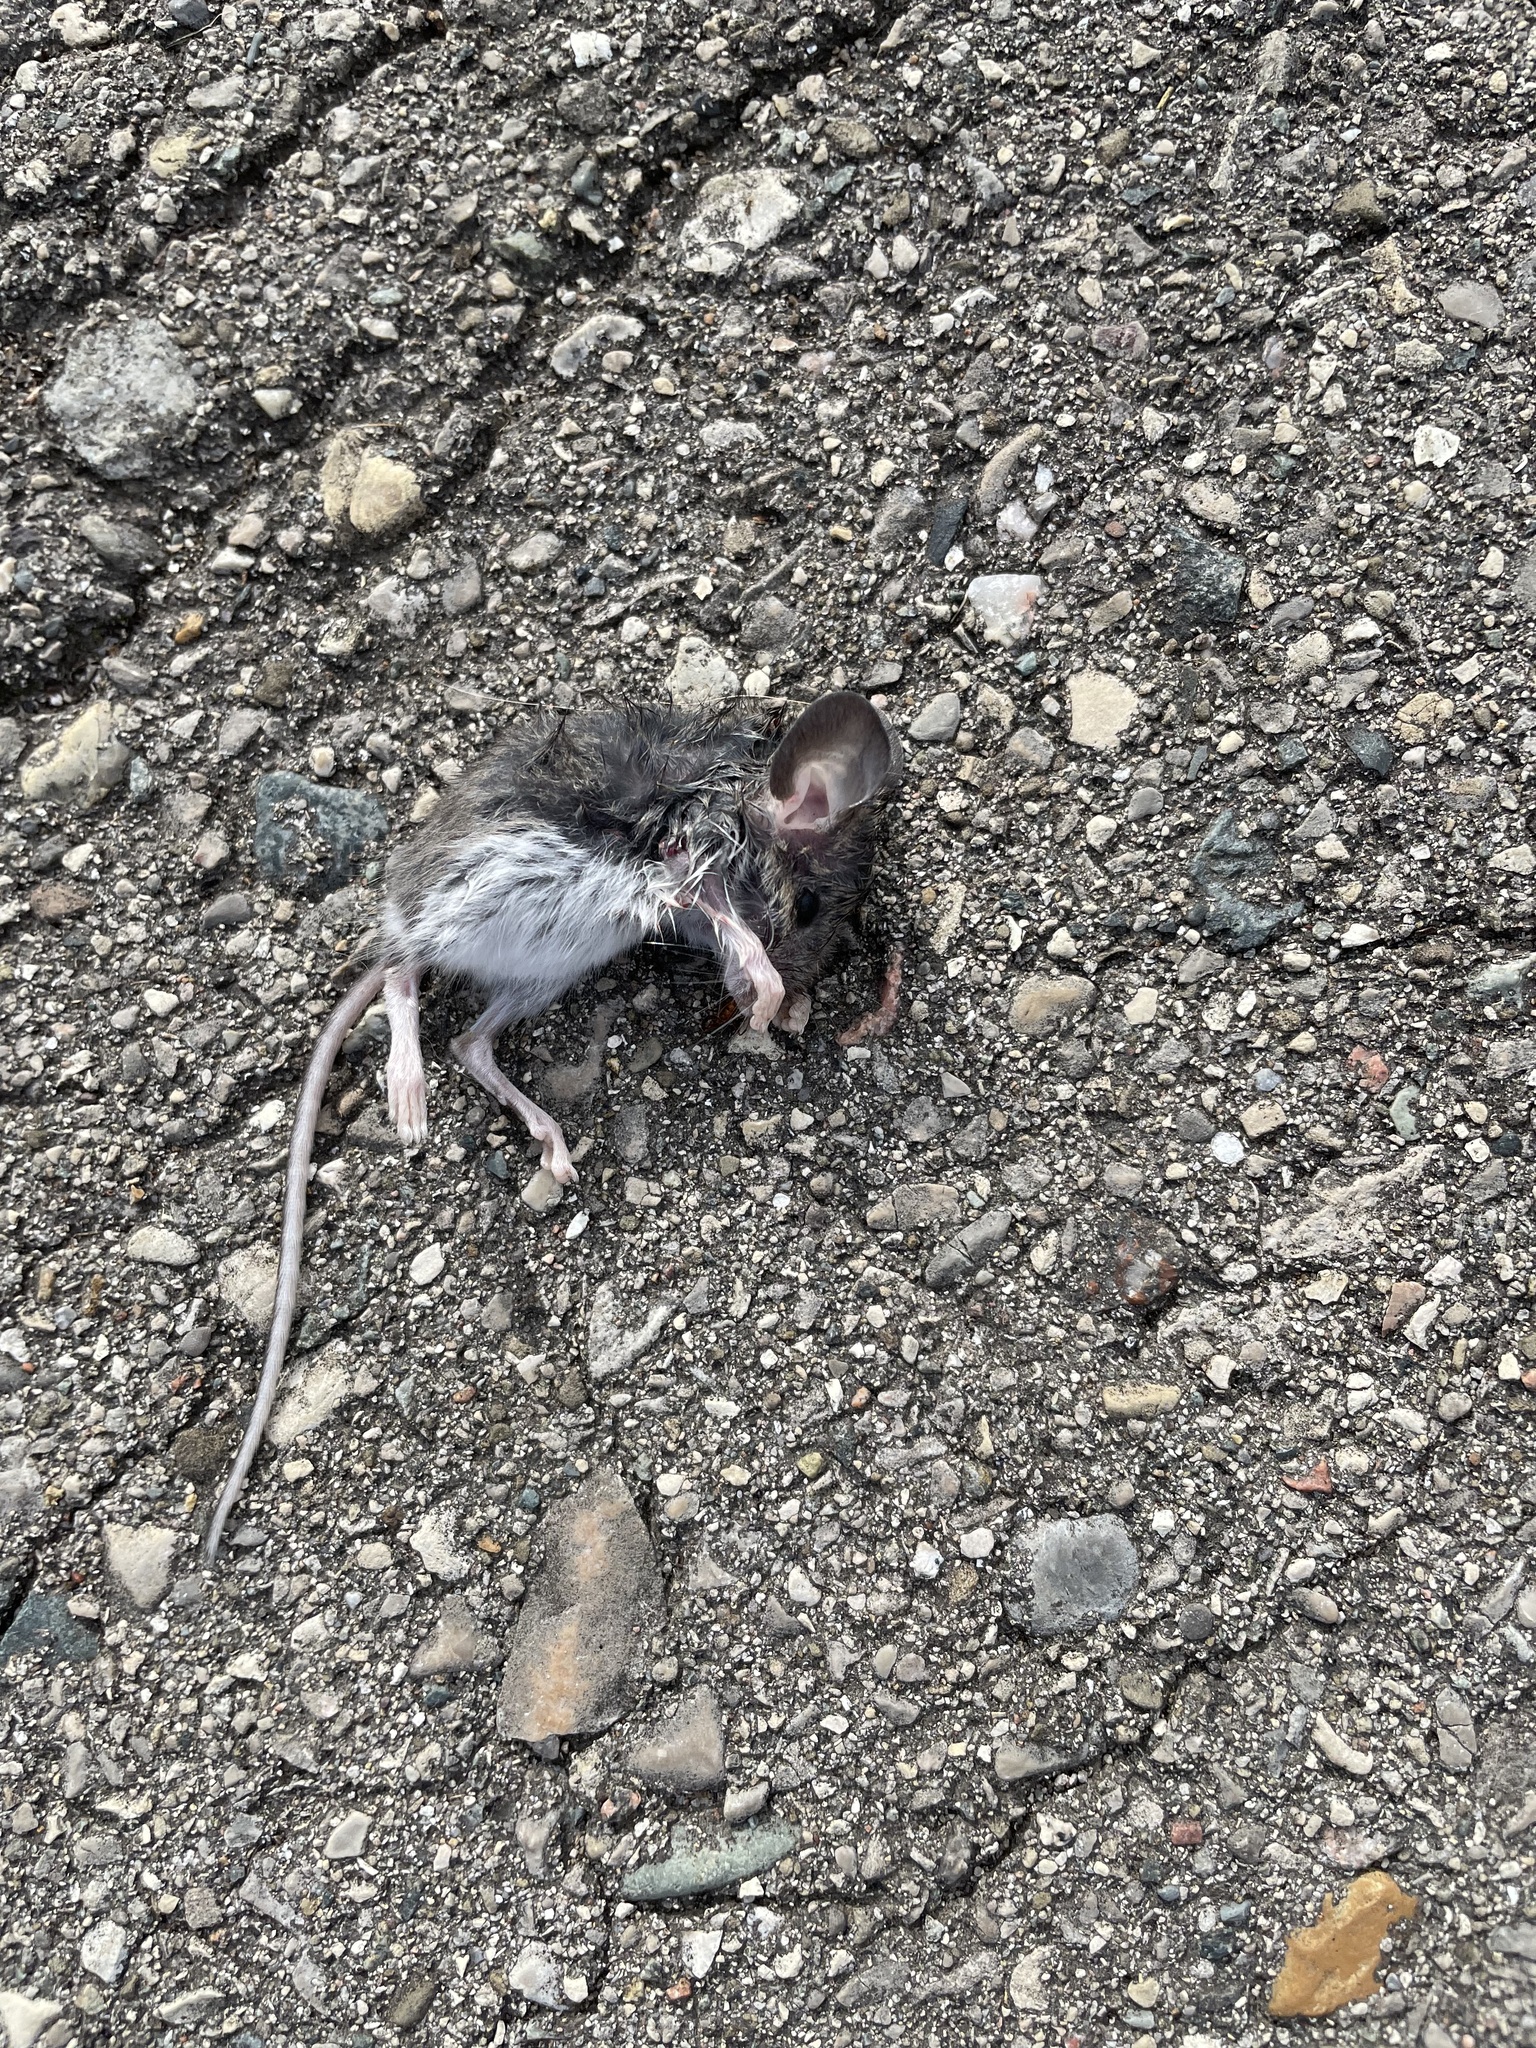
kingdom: Animalia
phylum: Chordata
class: Mammalia
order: Rodentia
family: Cricetidae
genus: Peromyscus
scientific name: Peromyscus maniculatus
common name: Deer mouse
